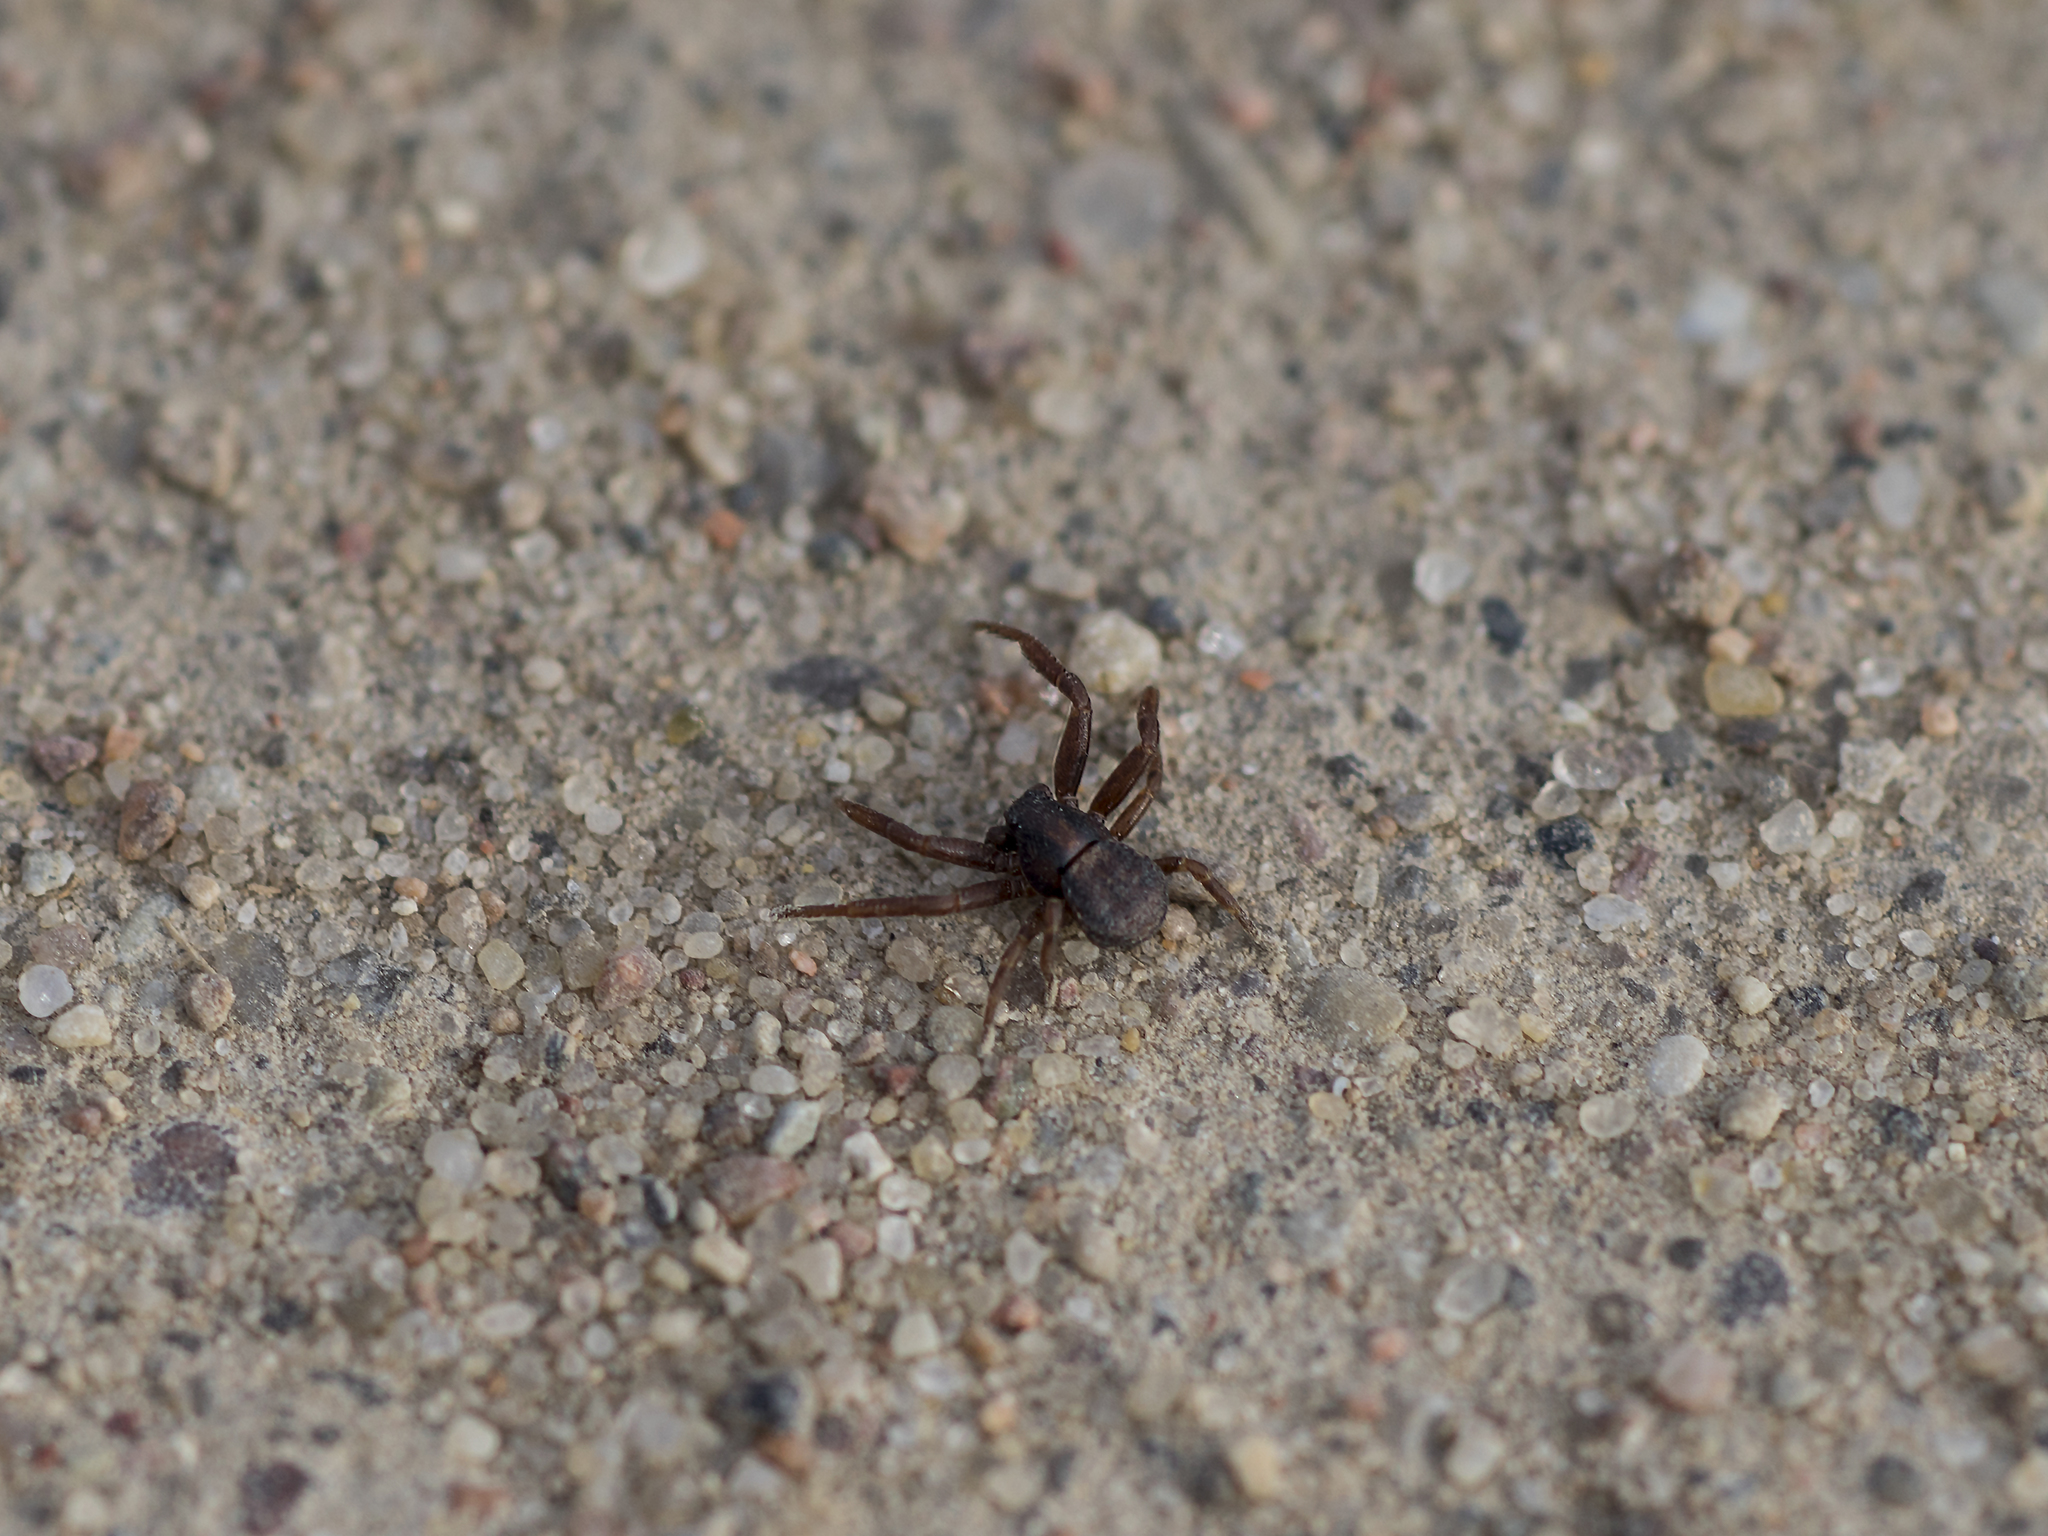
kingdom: Animalia
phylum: Arthropoda
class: Arachnida
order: Araneae
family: Thomisidae
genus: Ozyptila
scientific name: Ozyptila claveata
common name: Southern crablet
